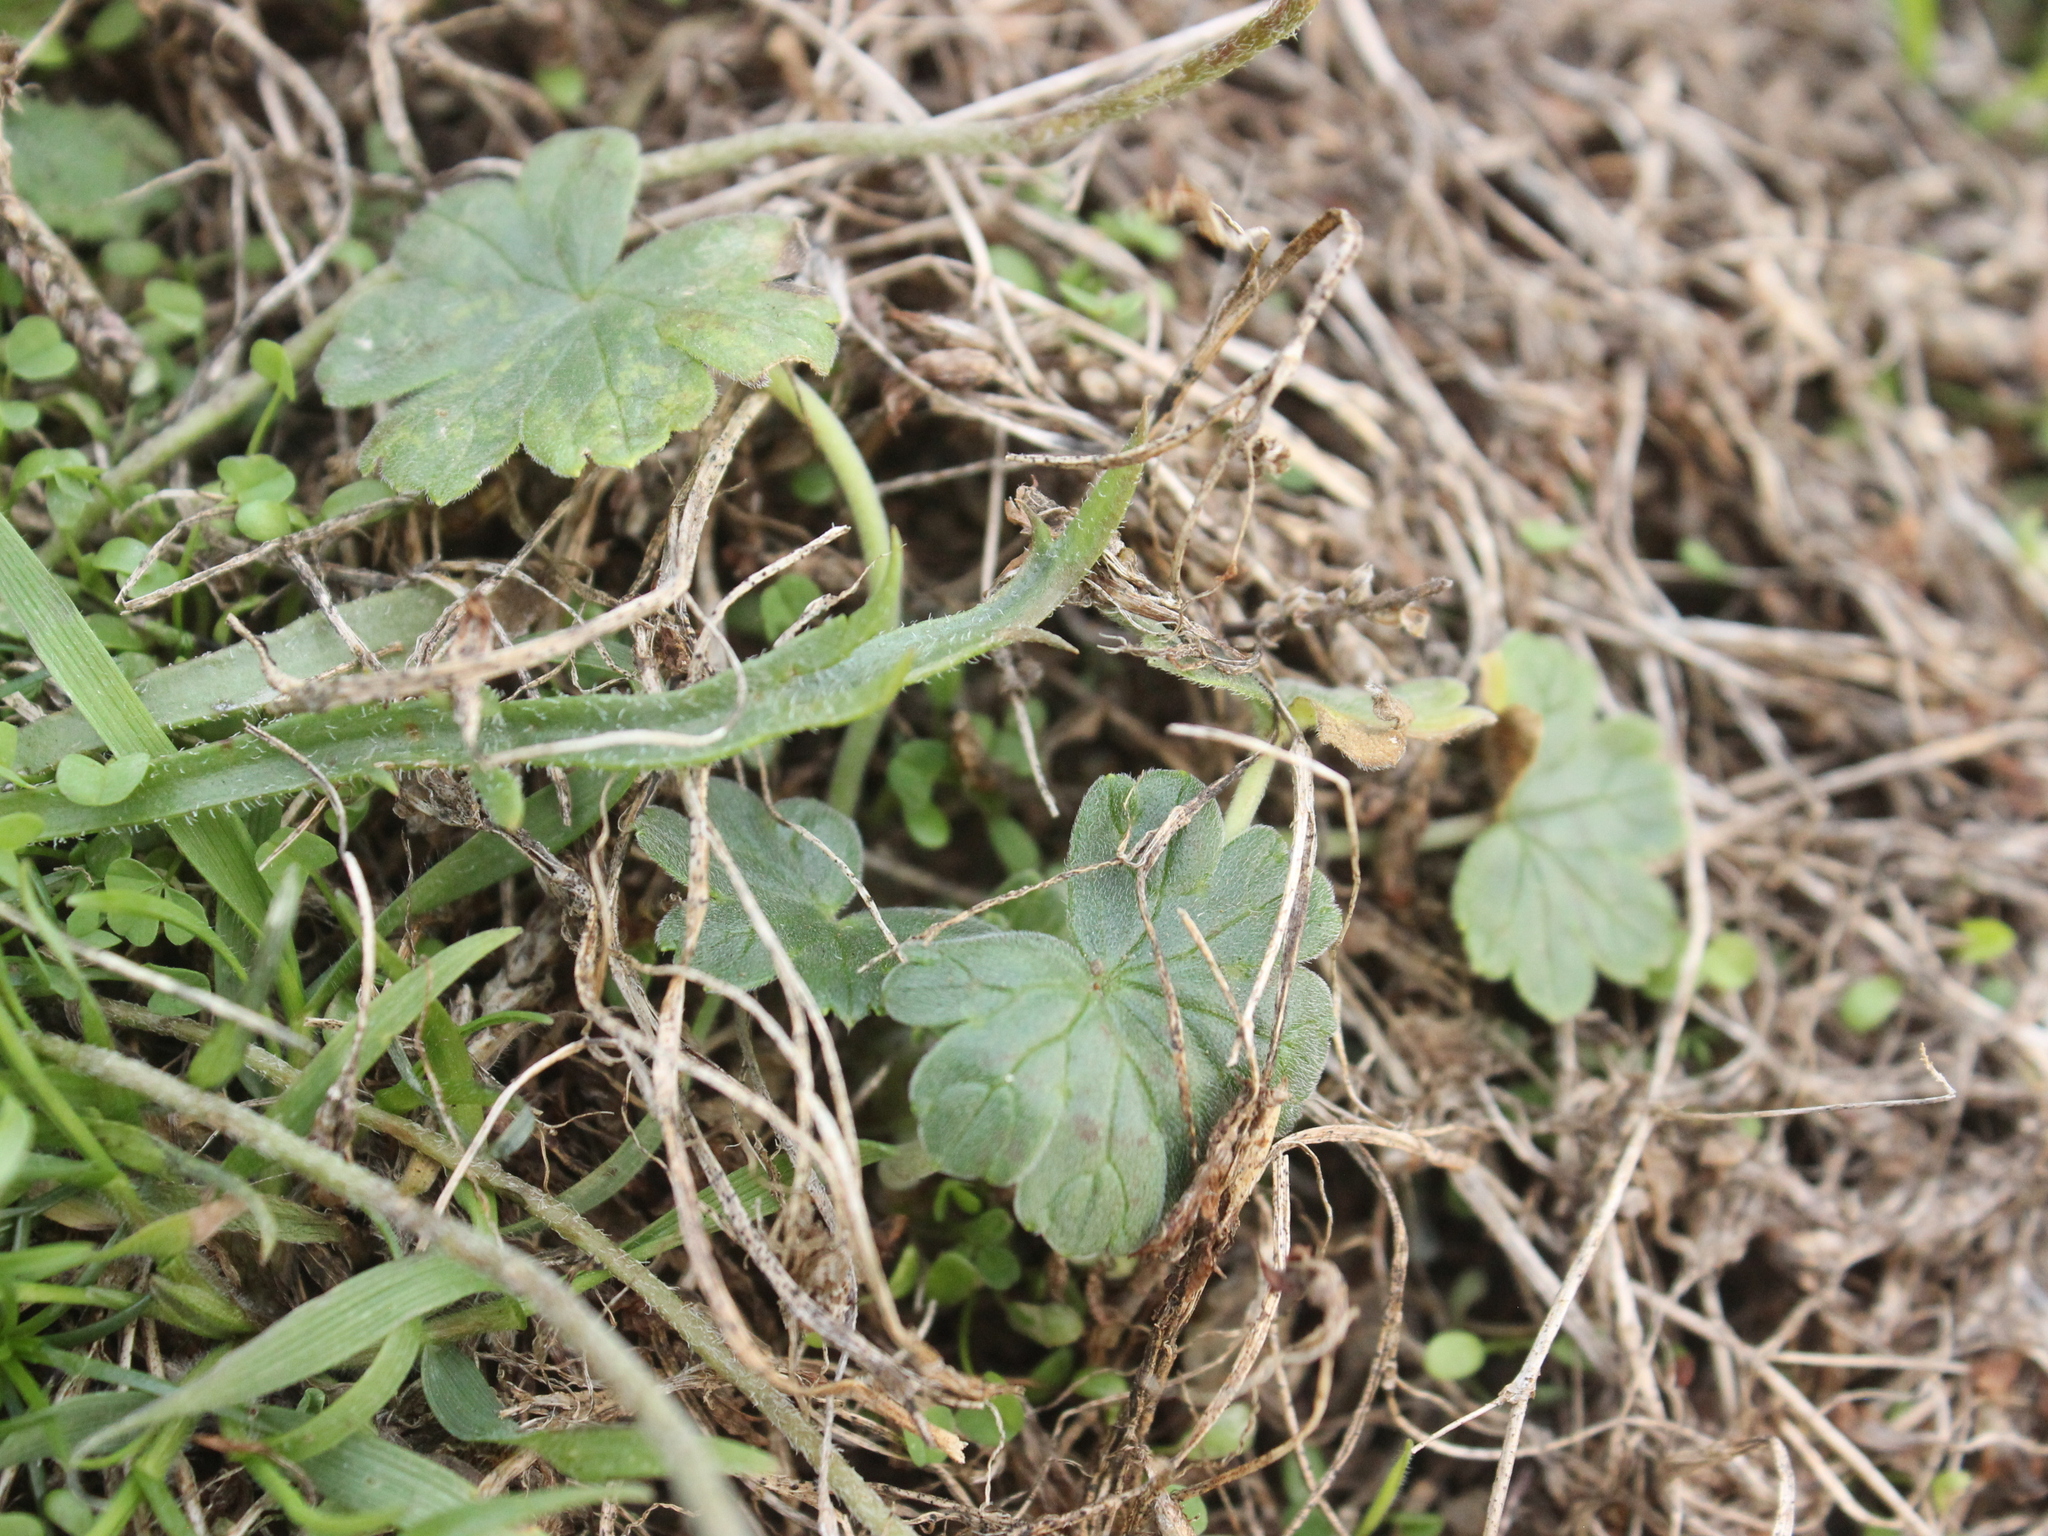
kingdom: Plantae
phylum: Tracheophyta
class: Magnoliopsida
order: Geraniales
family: Geraniaceae
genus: Geranium
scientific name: Geranium traversii
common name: Cranesbill
